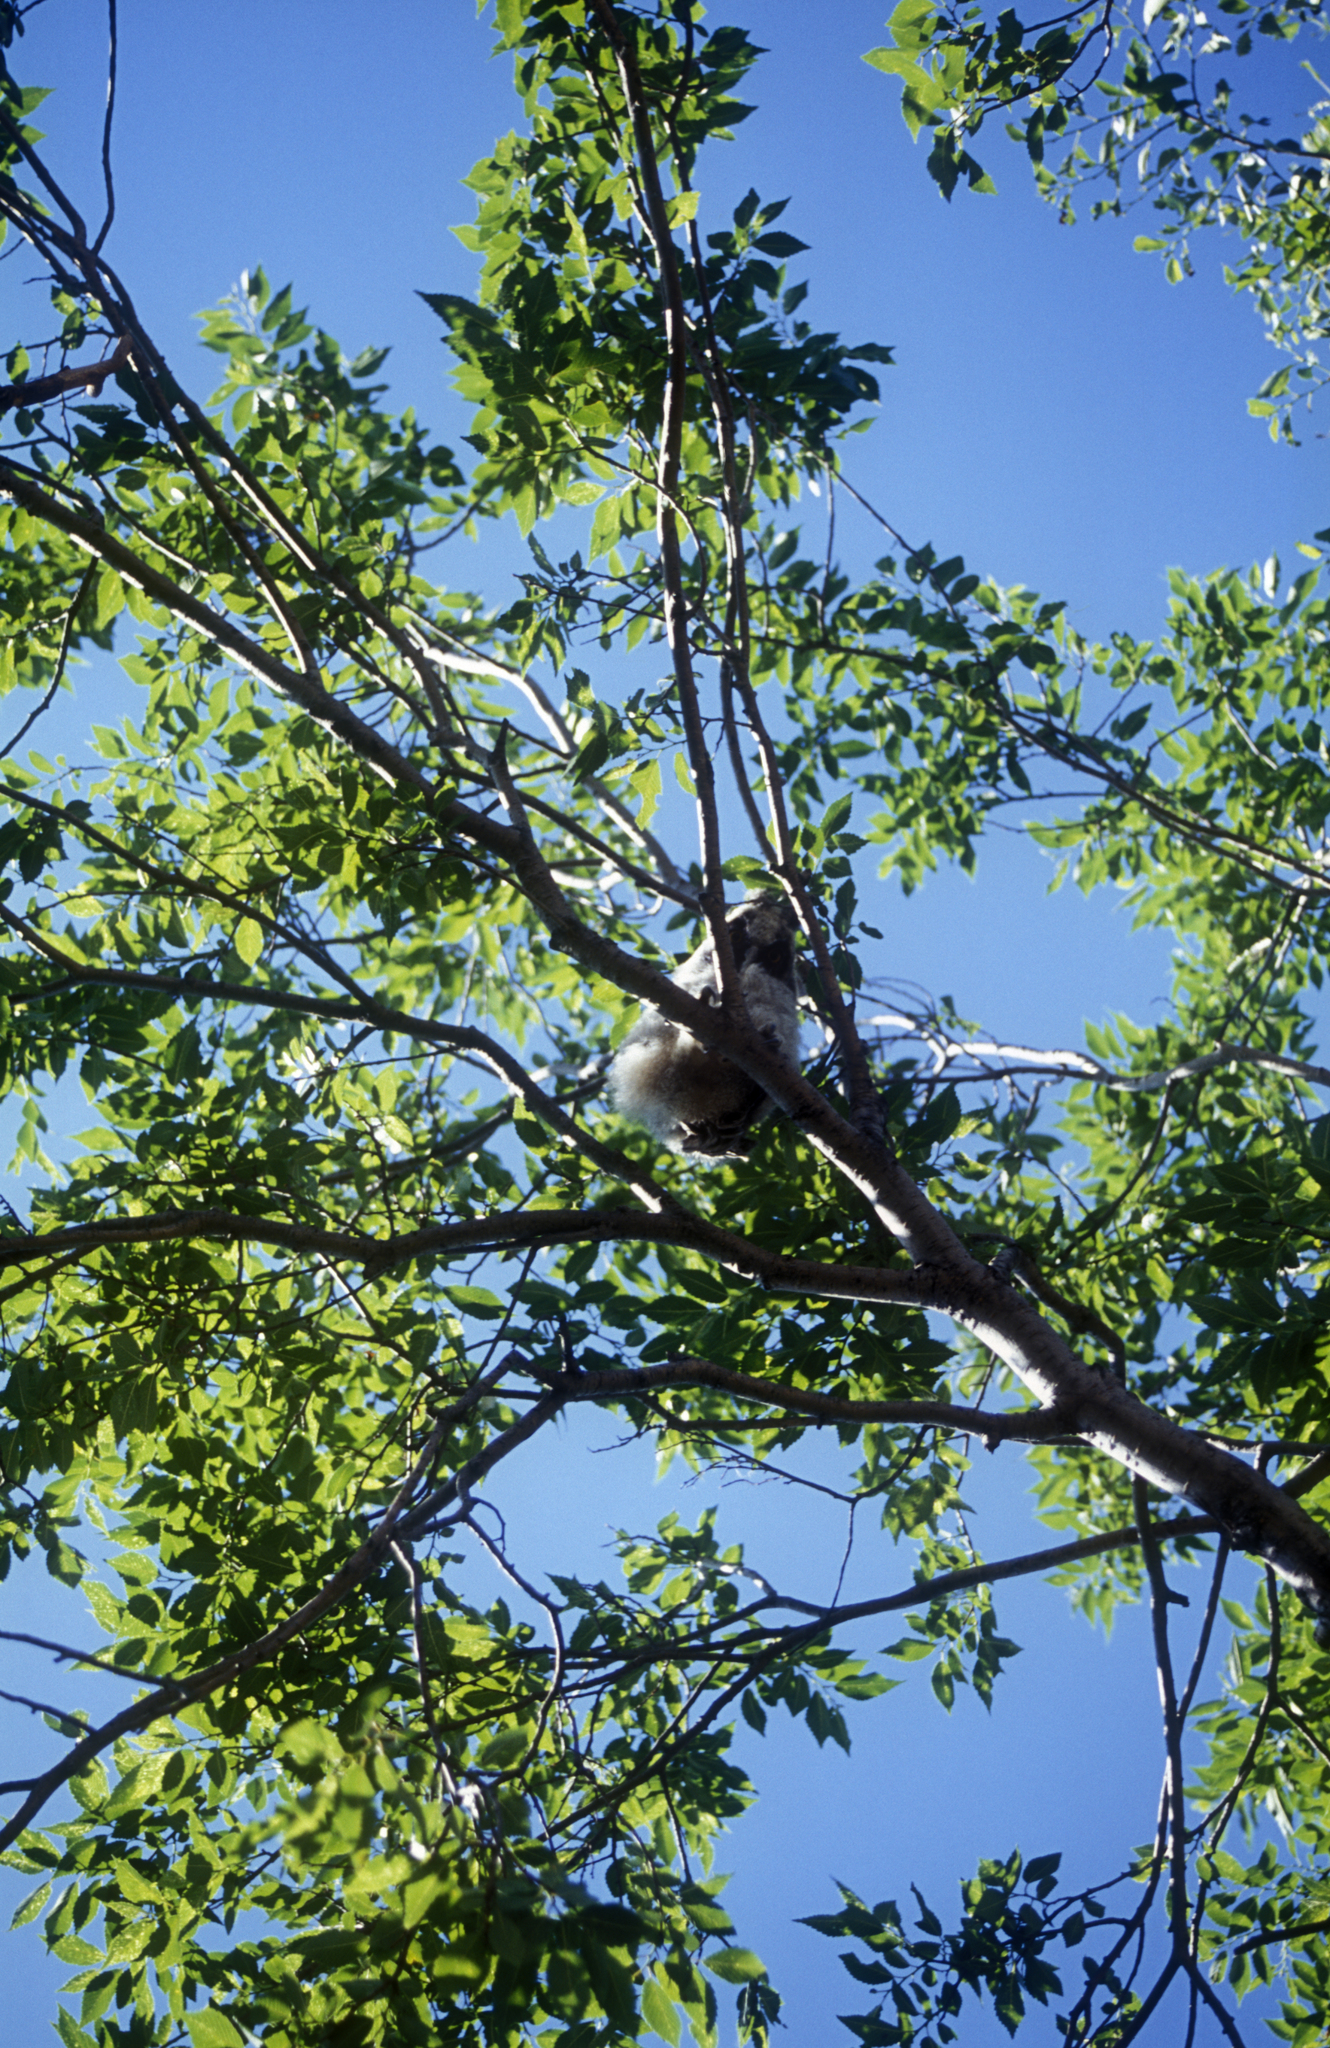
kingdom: Animalia
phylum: Chordata
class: Aves
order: Strigiformes
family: Strigidae
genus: Asio
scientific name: Asio otus
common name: Long-eared owl
